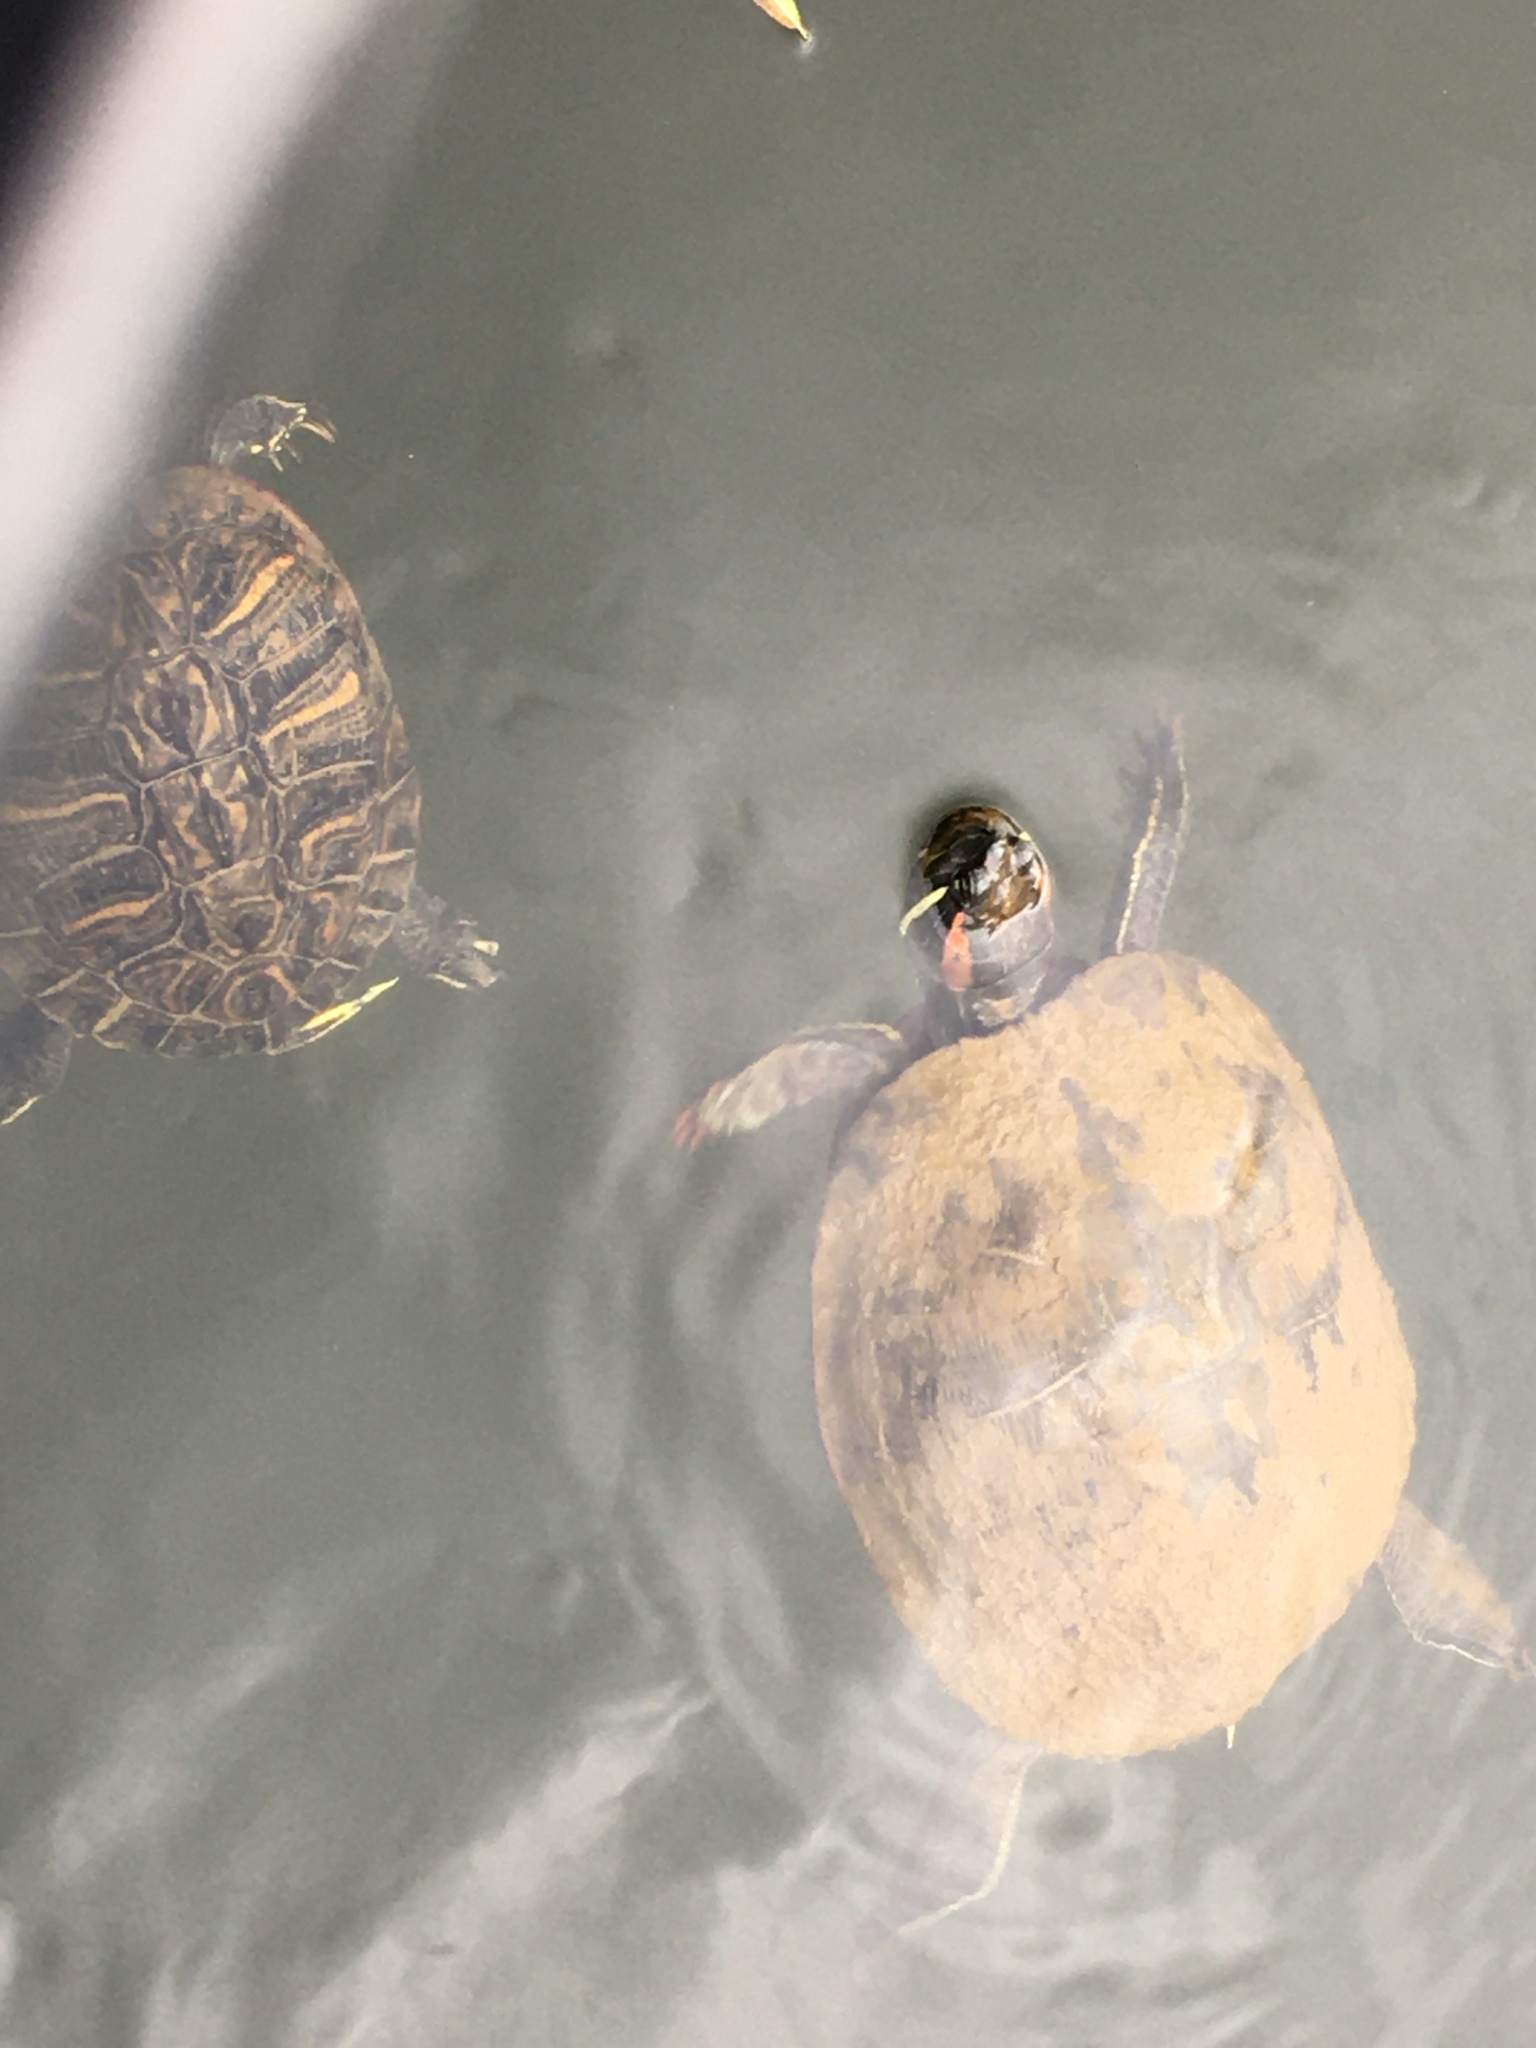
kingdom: Animalia
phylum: Chordata
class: Testudines
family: Emydidae
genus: Trachemys
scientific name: Trachemys scripta
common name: Slider
